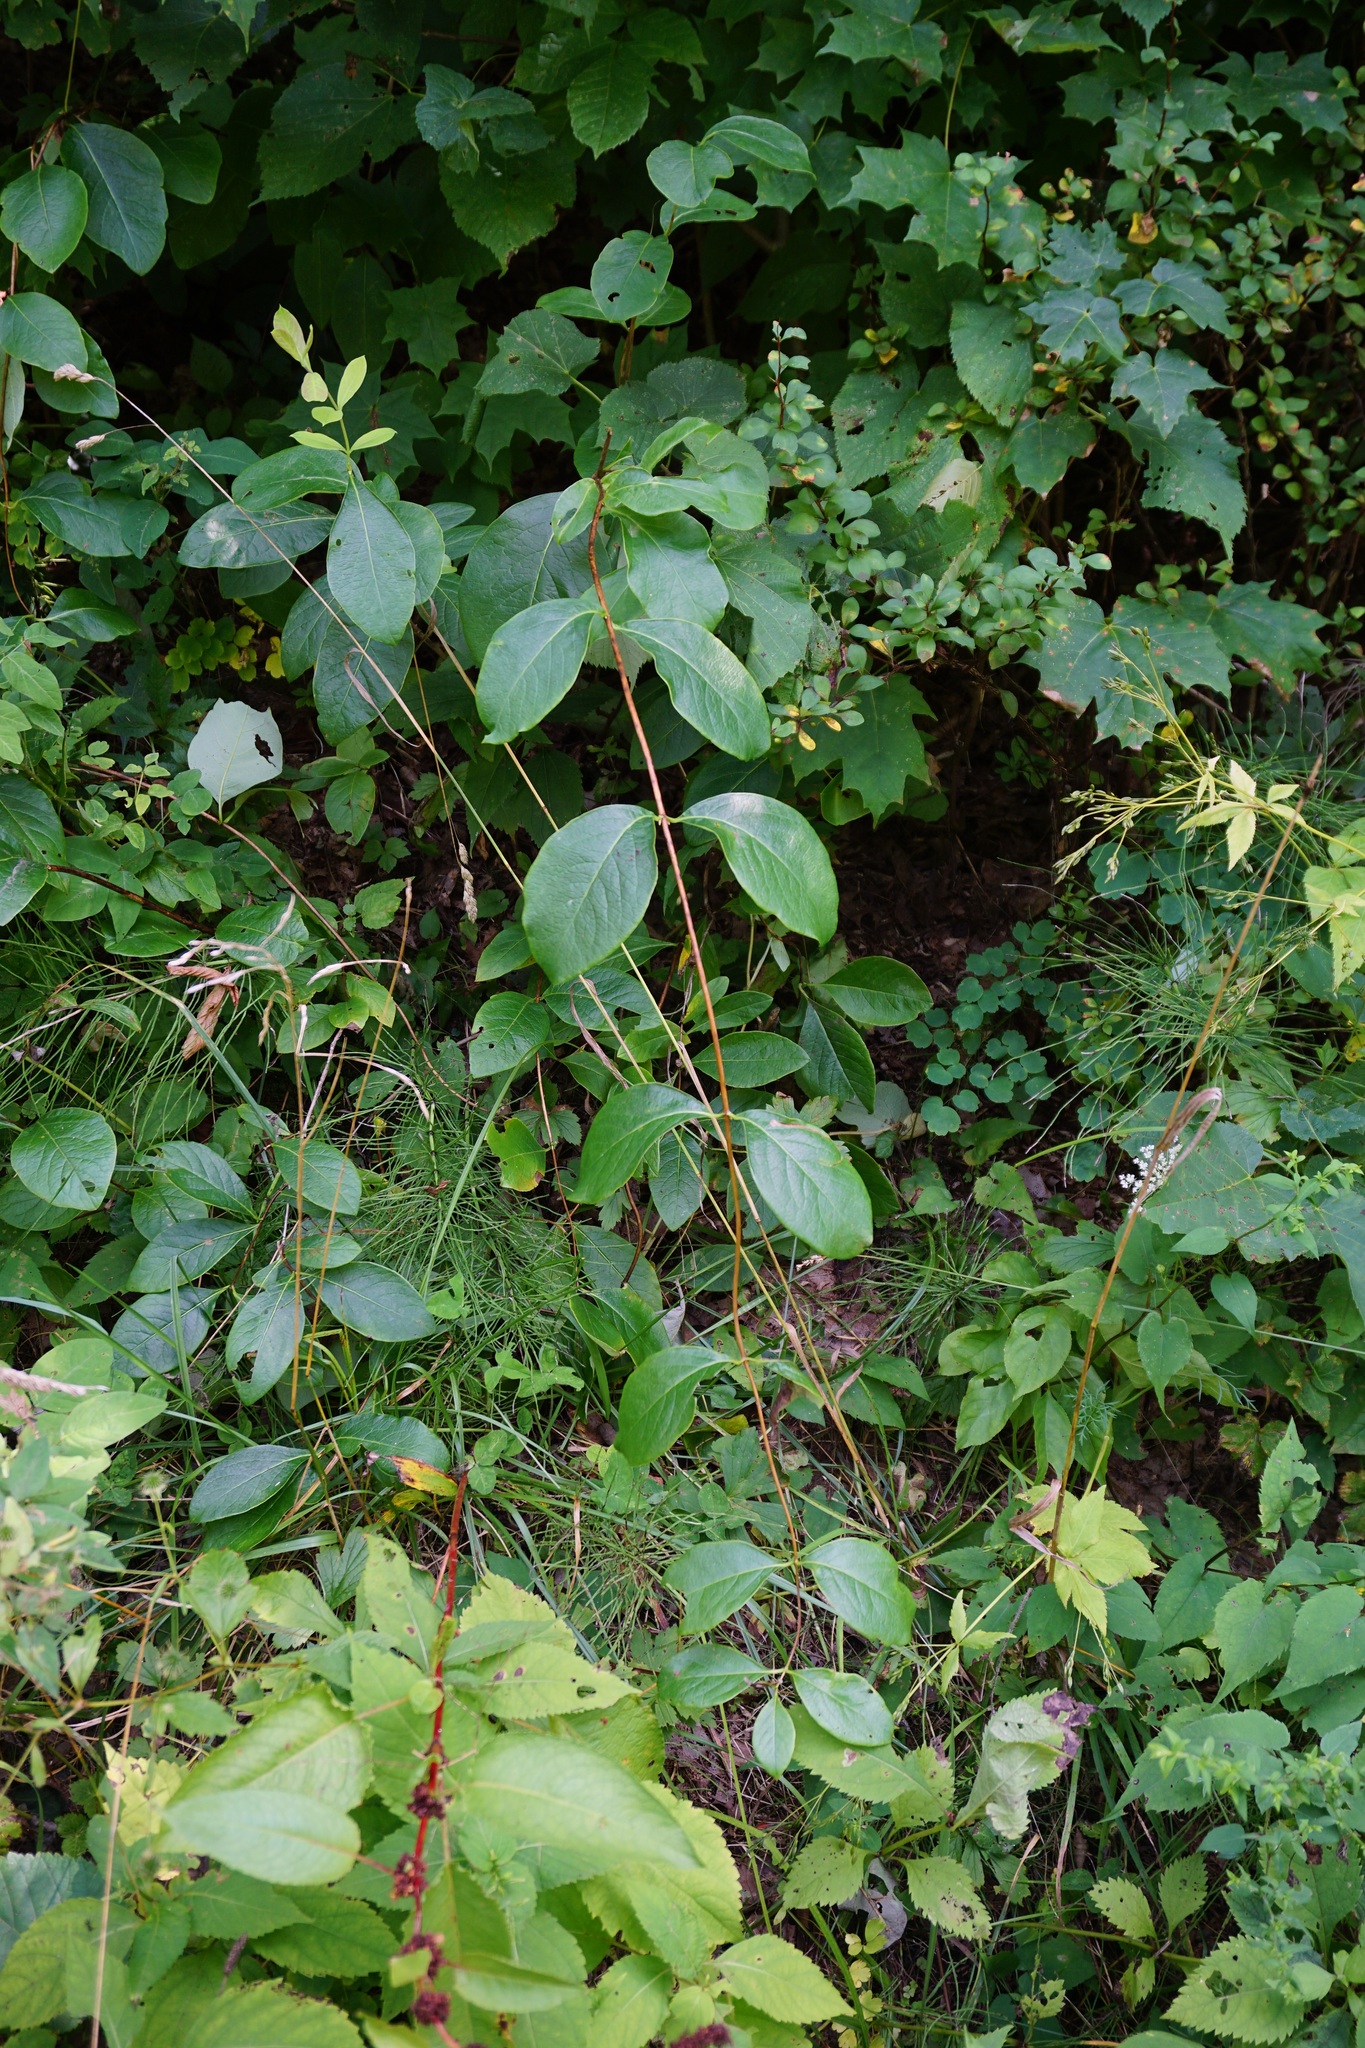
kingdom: Plantae
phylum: Tracheophyta
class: Magnoliopsida
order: Dipsacales
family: Caprifoliaceae
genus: Lonicera
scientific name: Lonicera dioica
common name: Limber honeysuckle
